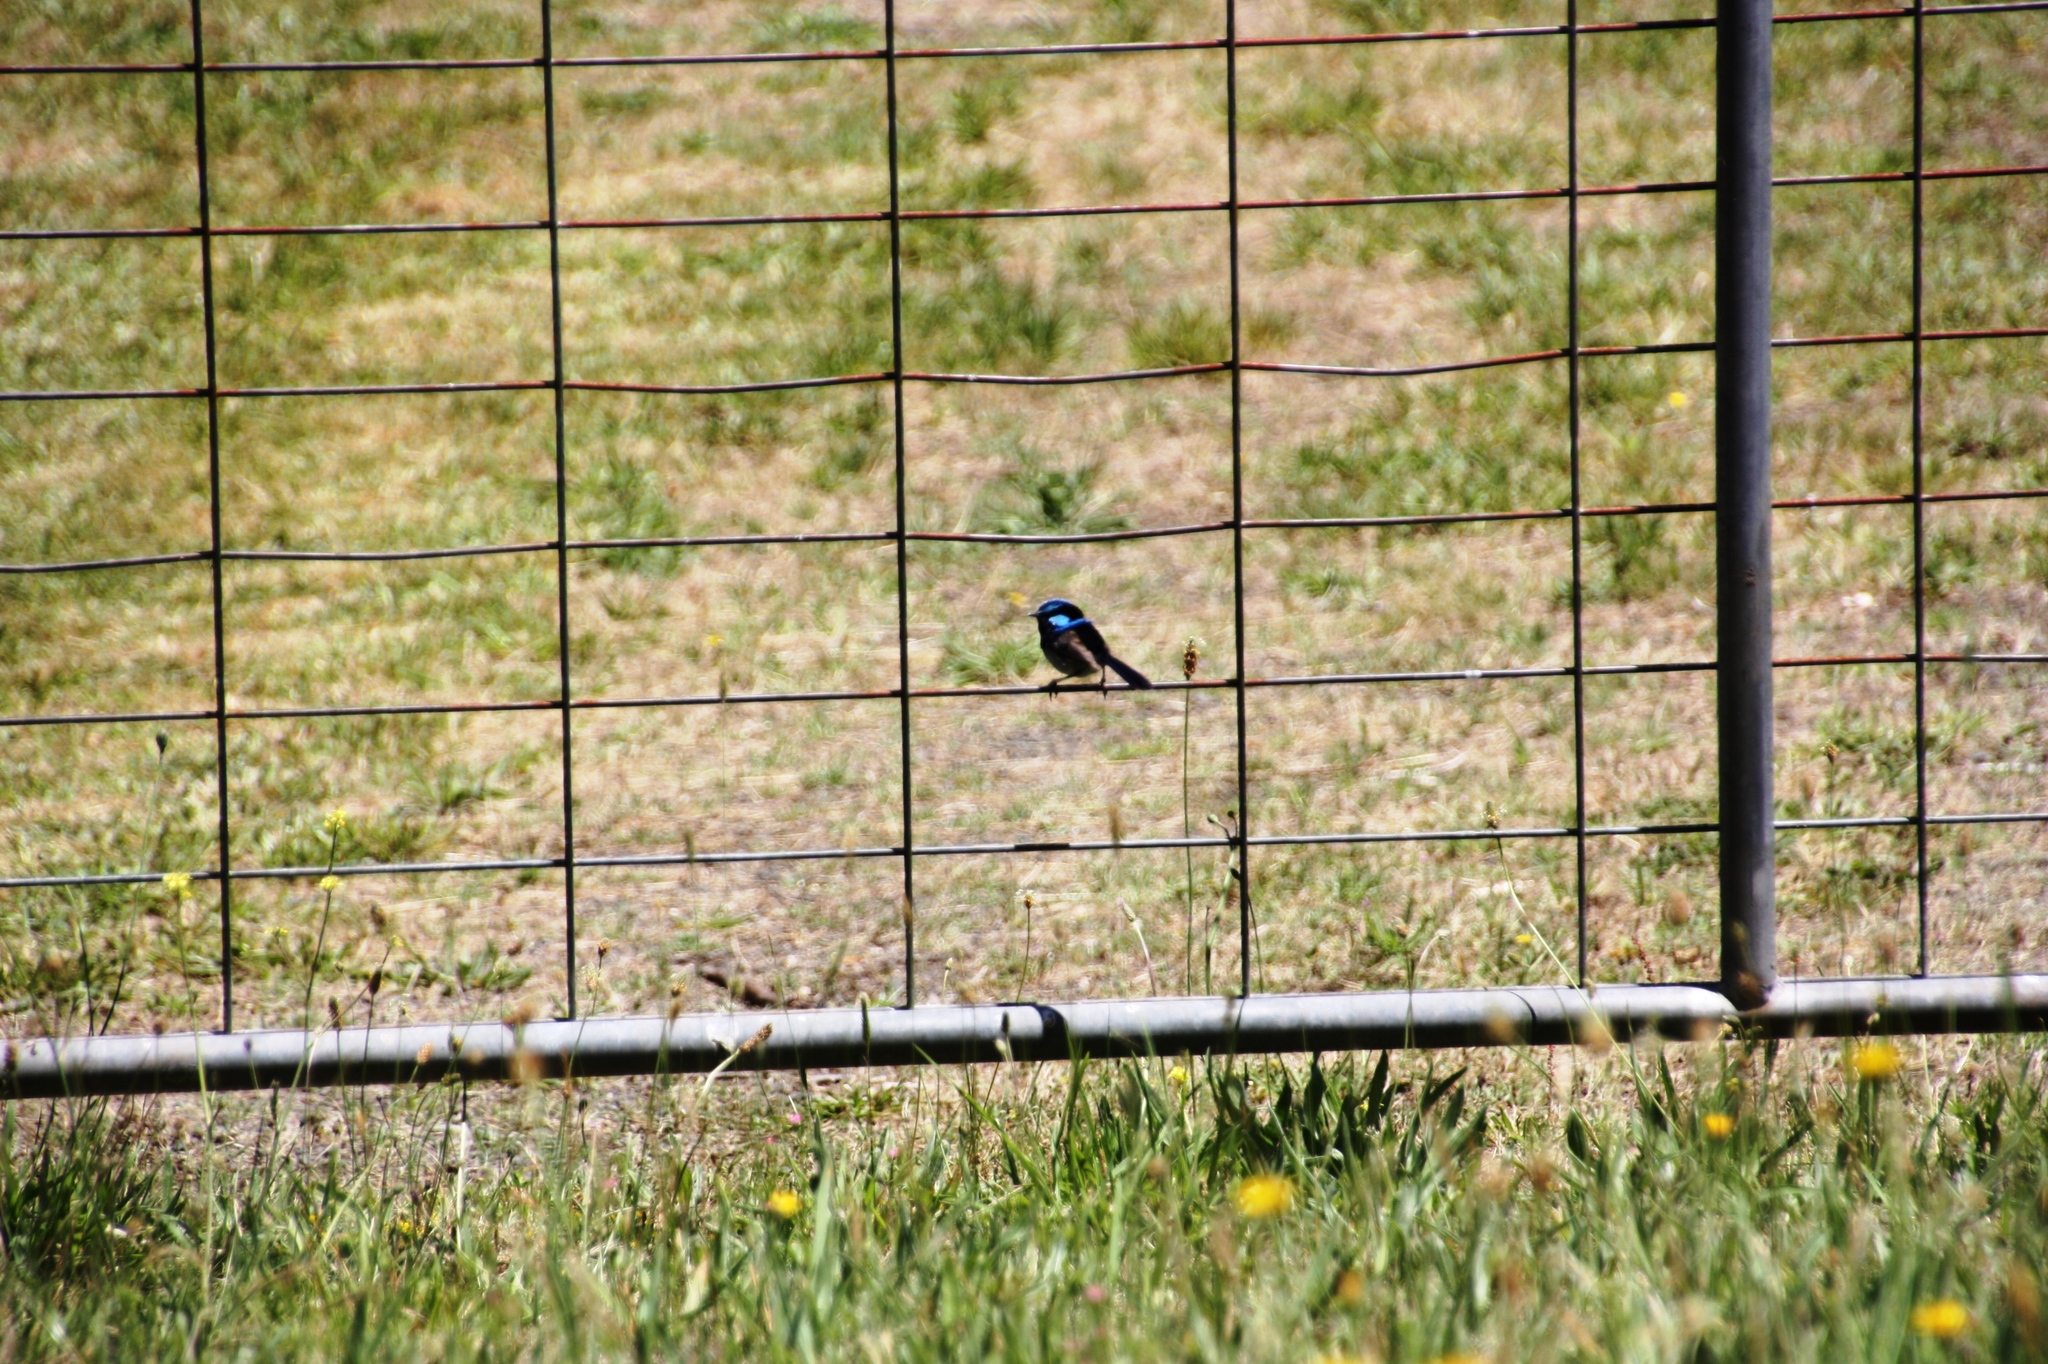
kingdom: Animalia
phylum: Chordata
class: Aves
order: Passeriformes
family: Maluridae
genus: Malurus
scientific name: Malurus cyaneus
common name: Superb fairywren
